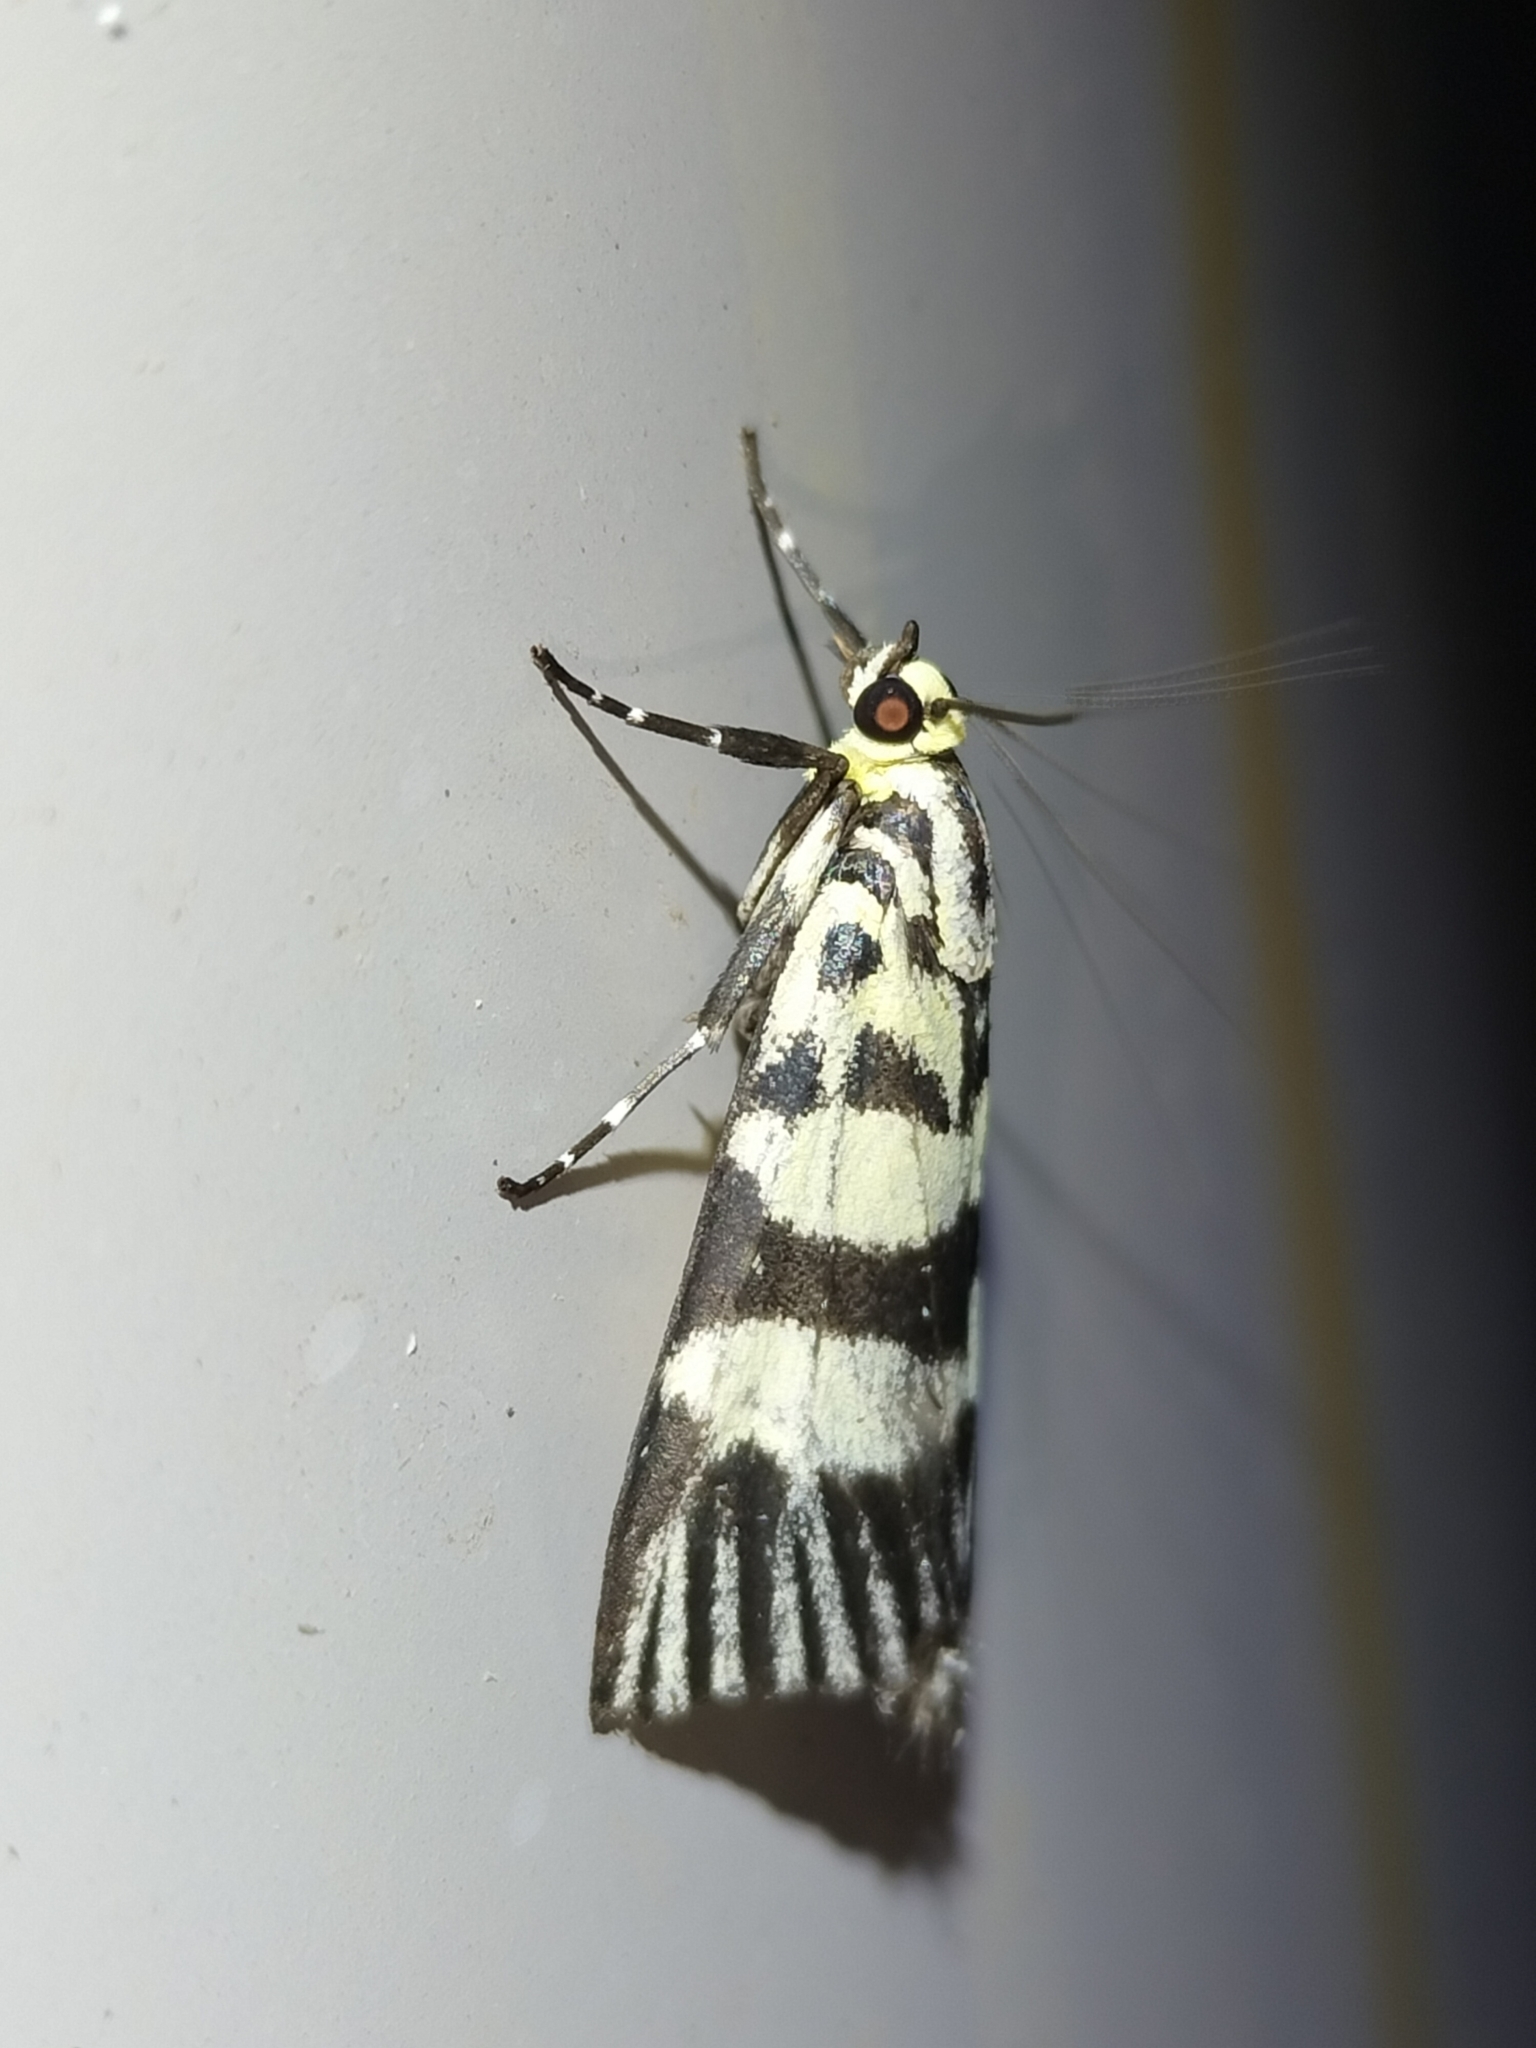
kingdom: Animalia
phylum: Arthropoda
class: Insecta
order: Lepidoptera
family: Crambidae
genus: Heortia
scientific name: Heortia vitessoides
